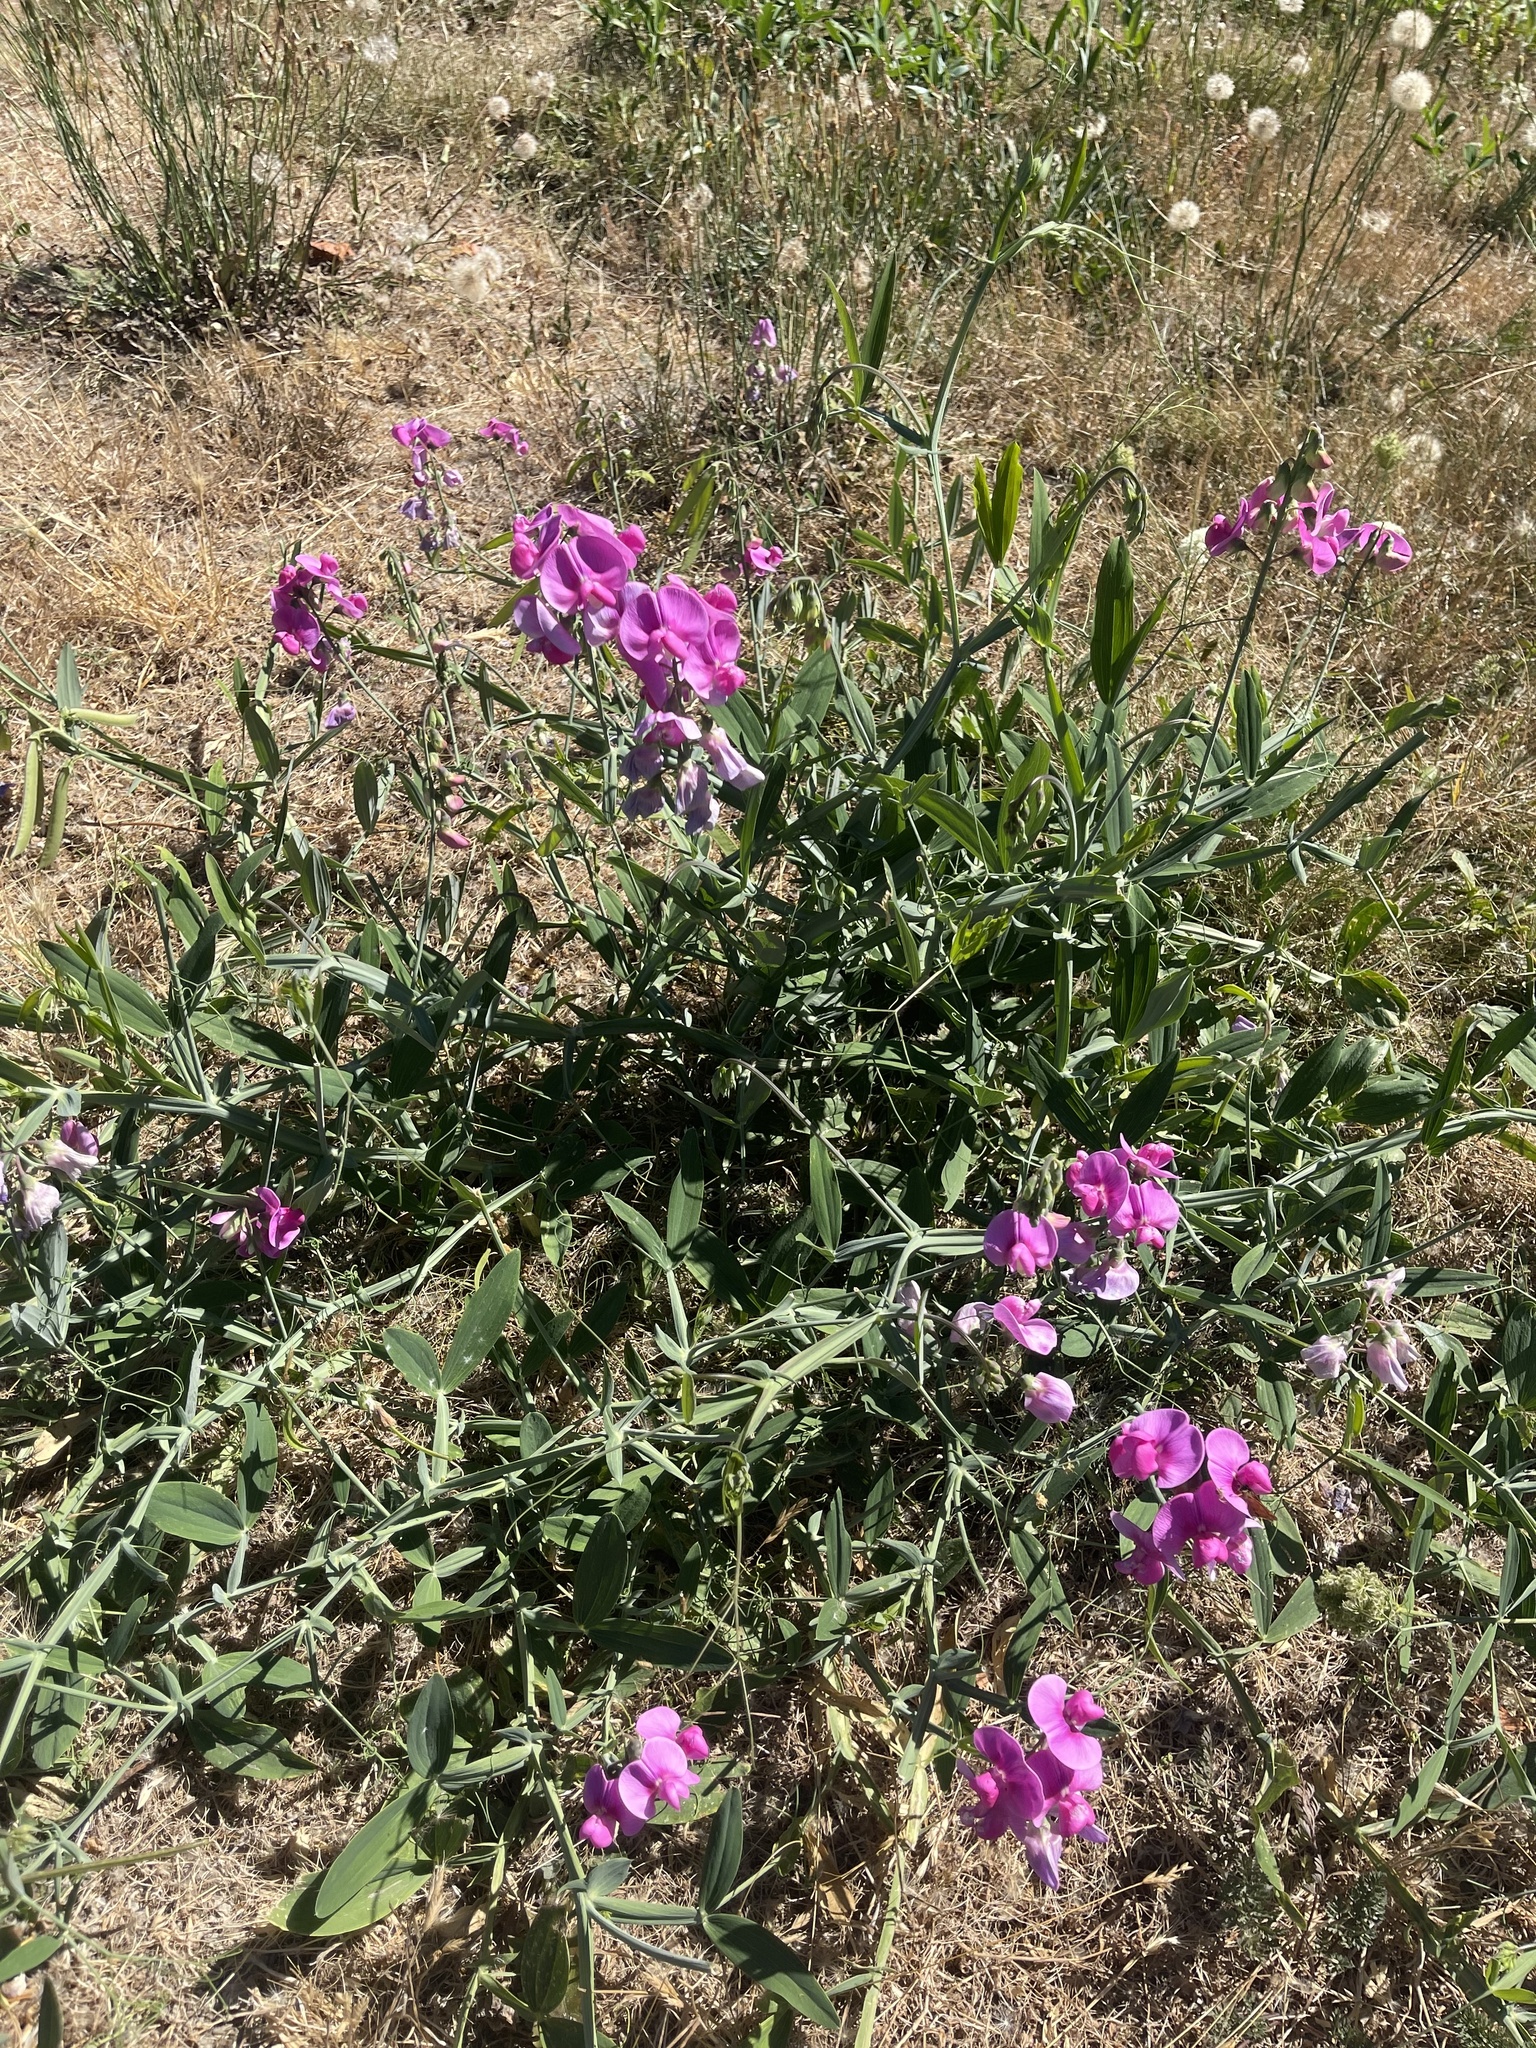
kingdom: Plantae
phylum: Tracheophyta
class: Magnoliopsida
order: Fabales
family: Fabaceae
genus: Lathyrus
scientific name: Lathyrus latifolius
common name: Perennial pea
